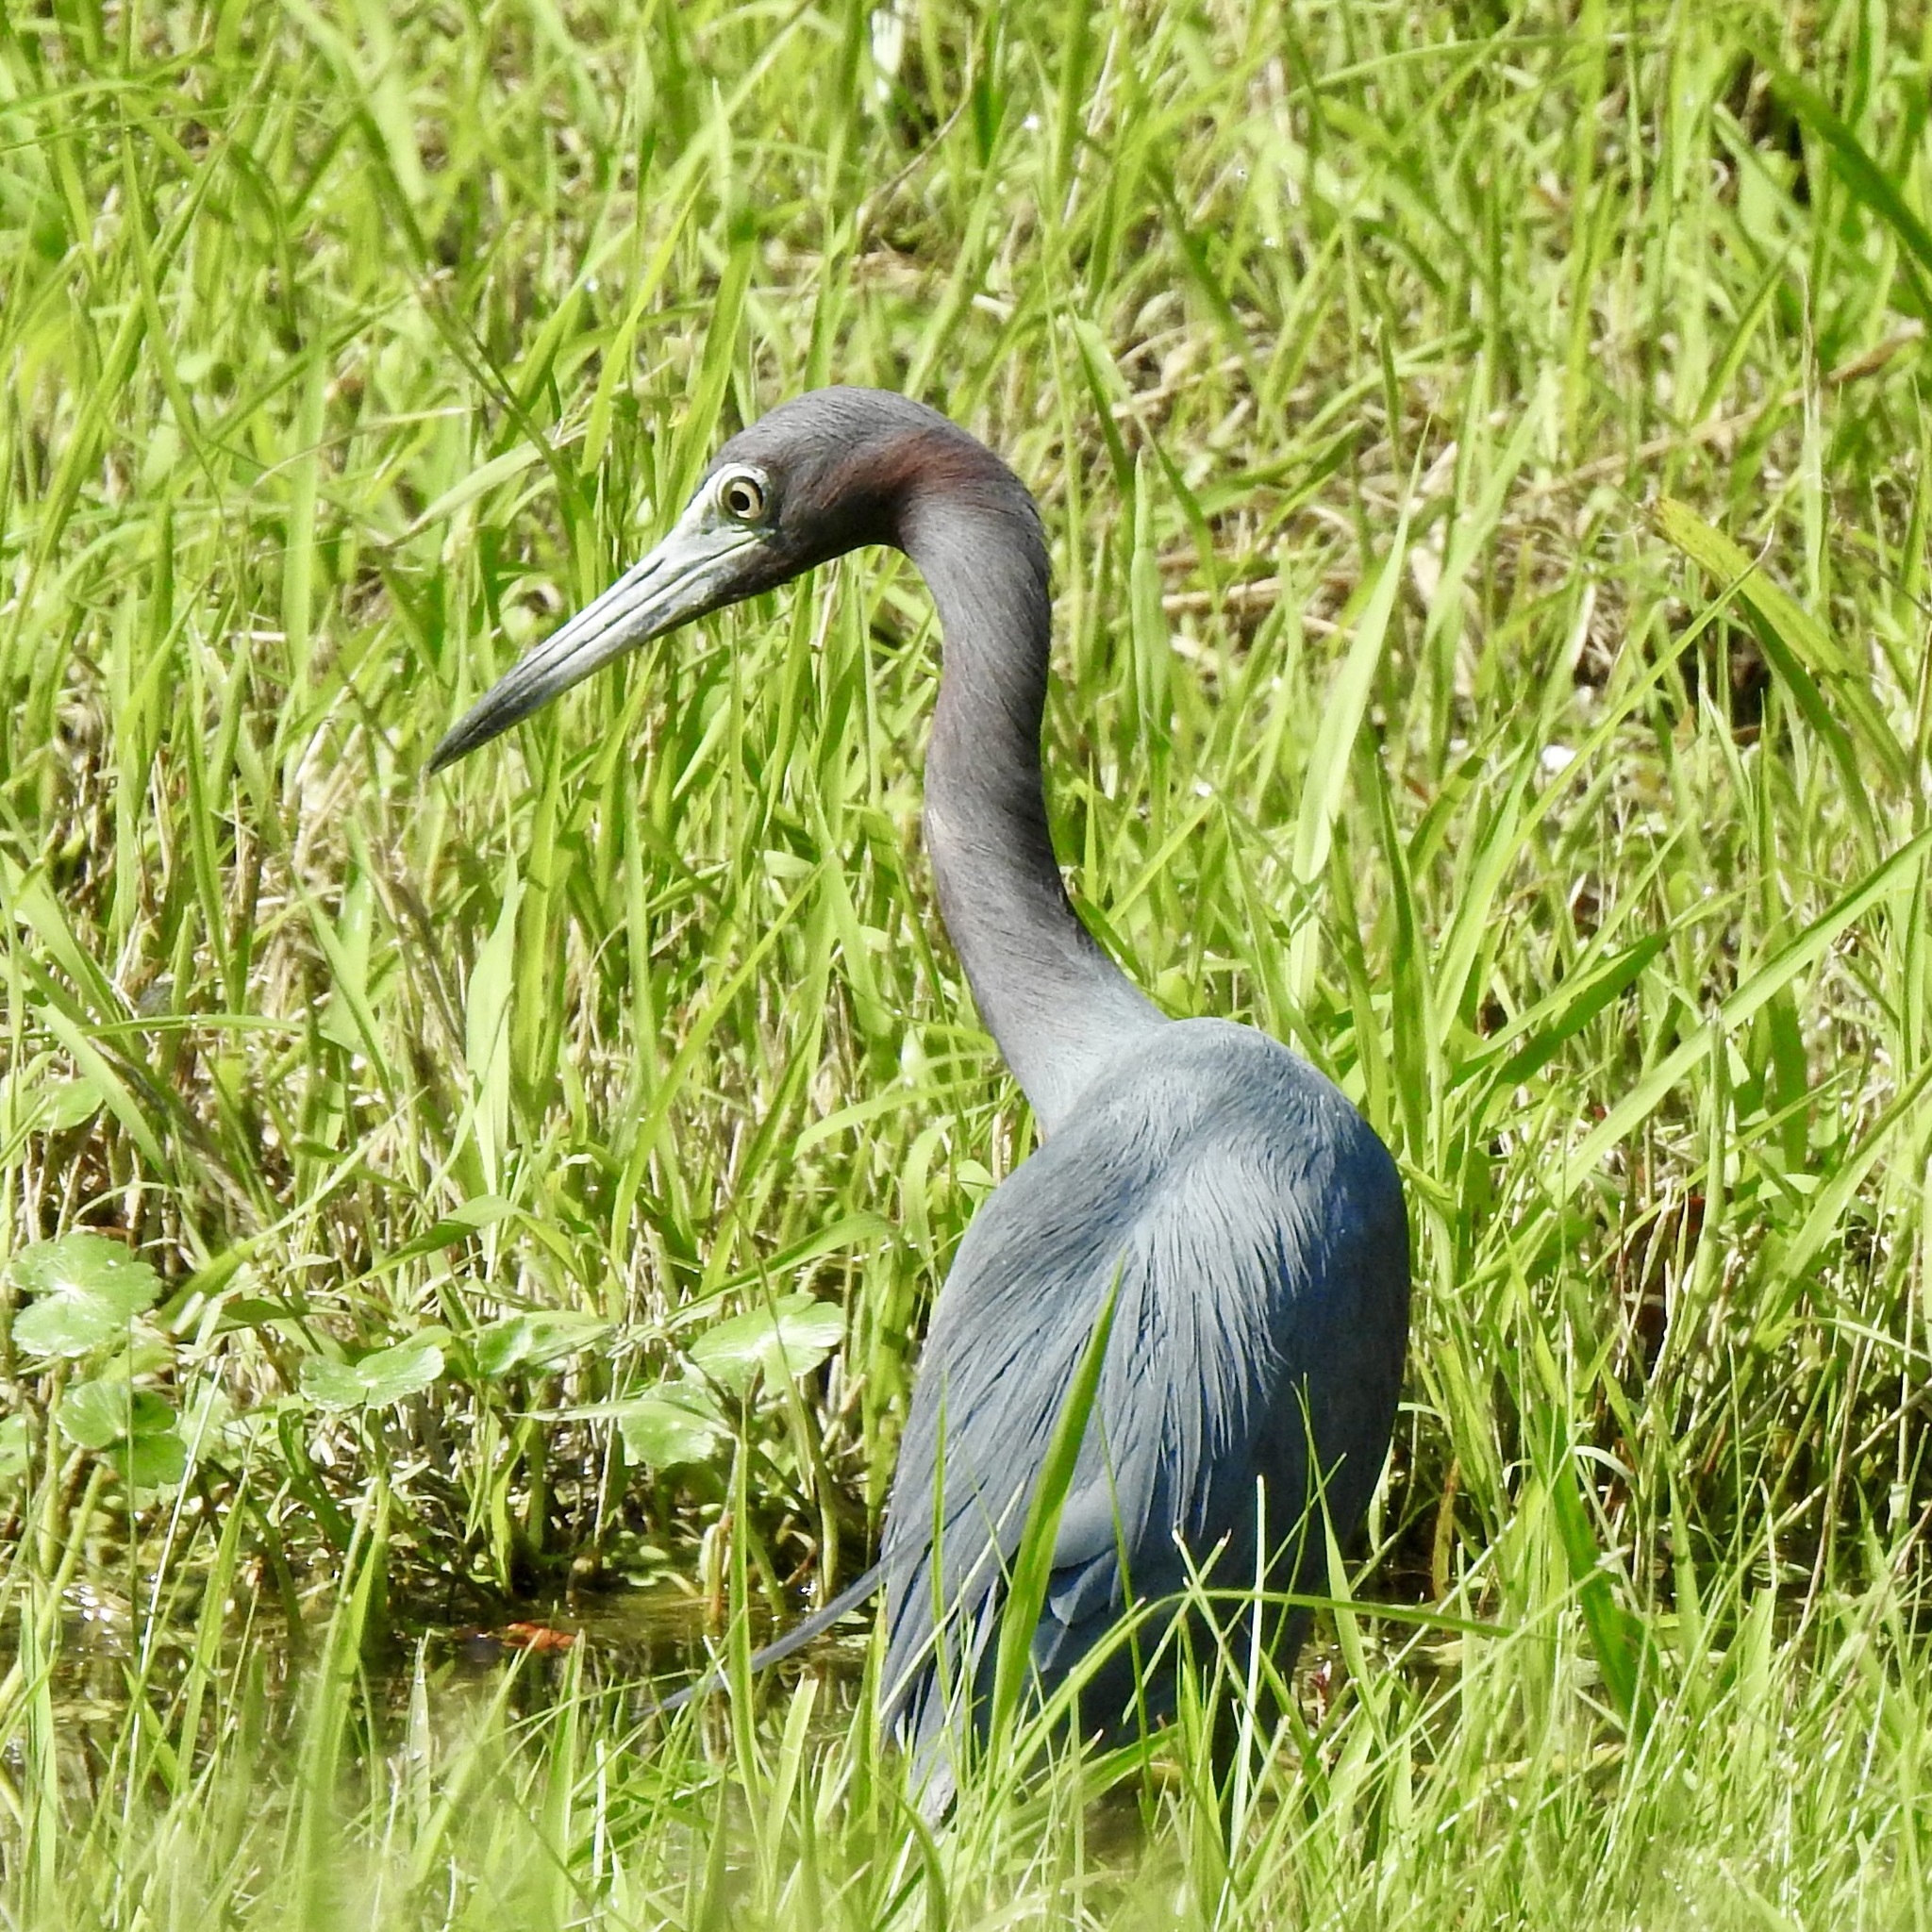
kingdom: Animalia
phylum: Chordata
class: Aves
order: Pelecaniformes
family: Ardeidae
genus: Egretta
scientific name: Egretta caerulea
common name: Little blue heron
